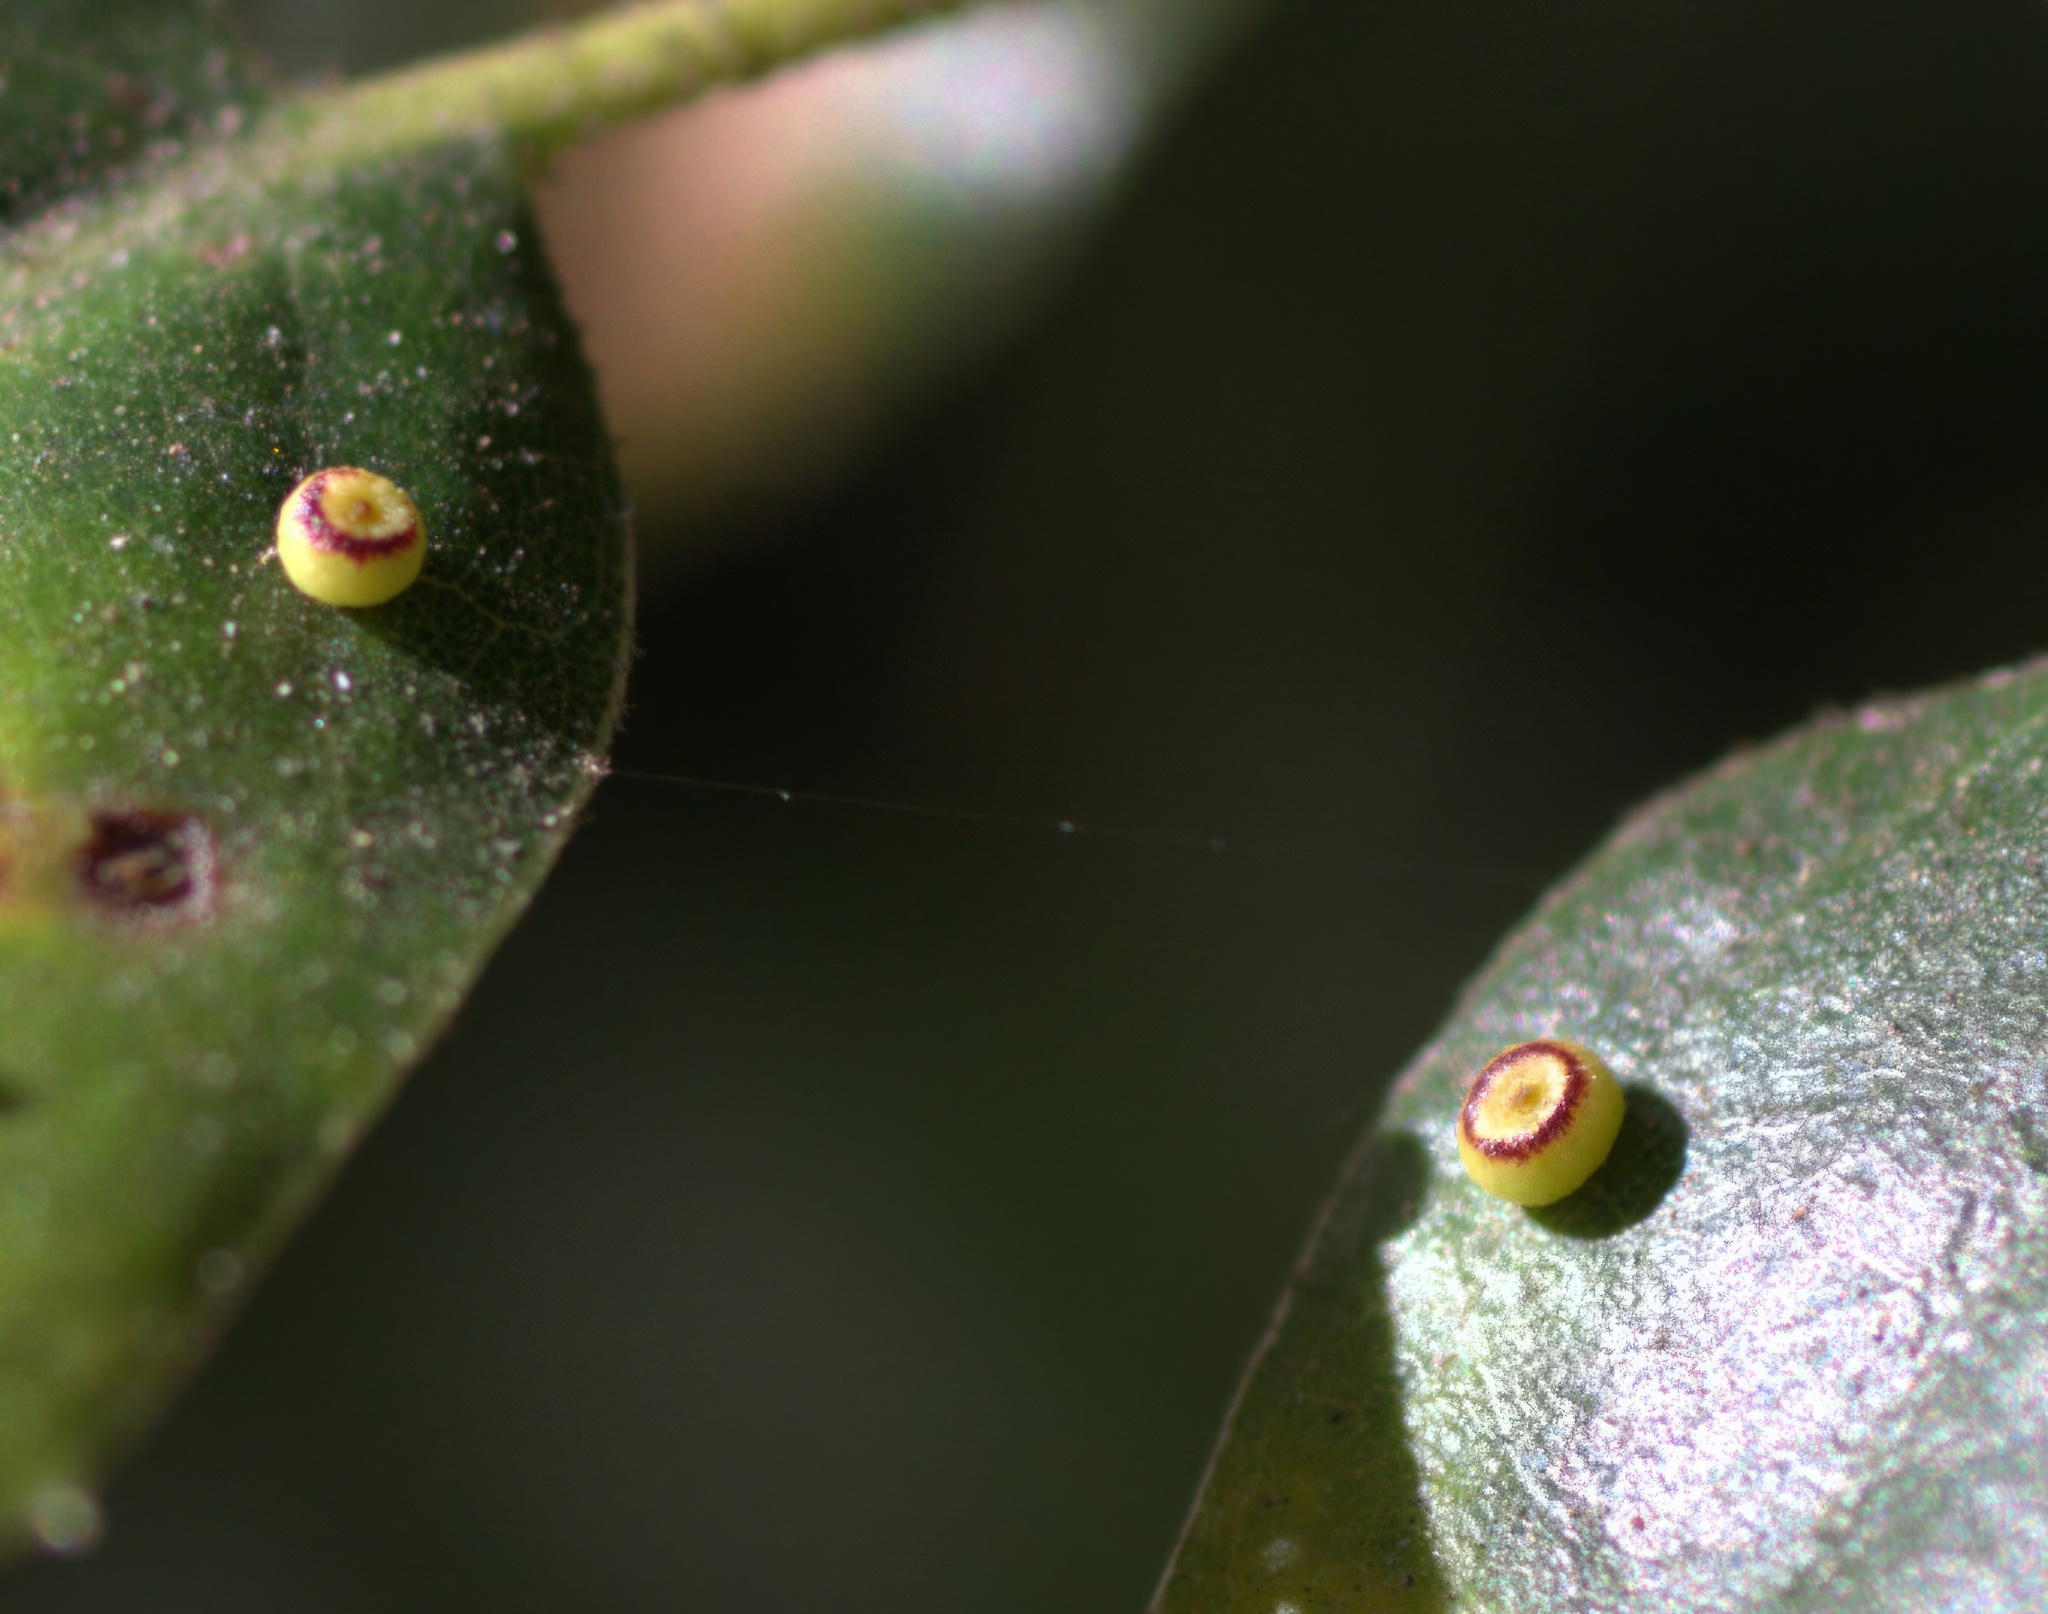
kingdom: Animalia
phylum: Arthropoda
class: Insecta
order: Hymenoptera
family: Cynipidae
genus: Dryocosmus
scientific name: Dryocosmus
